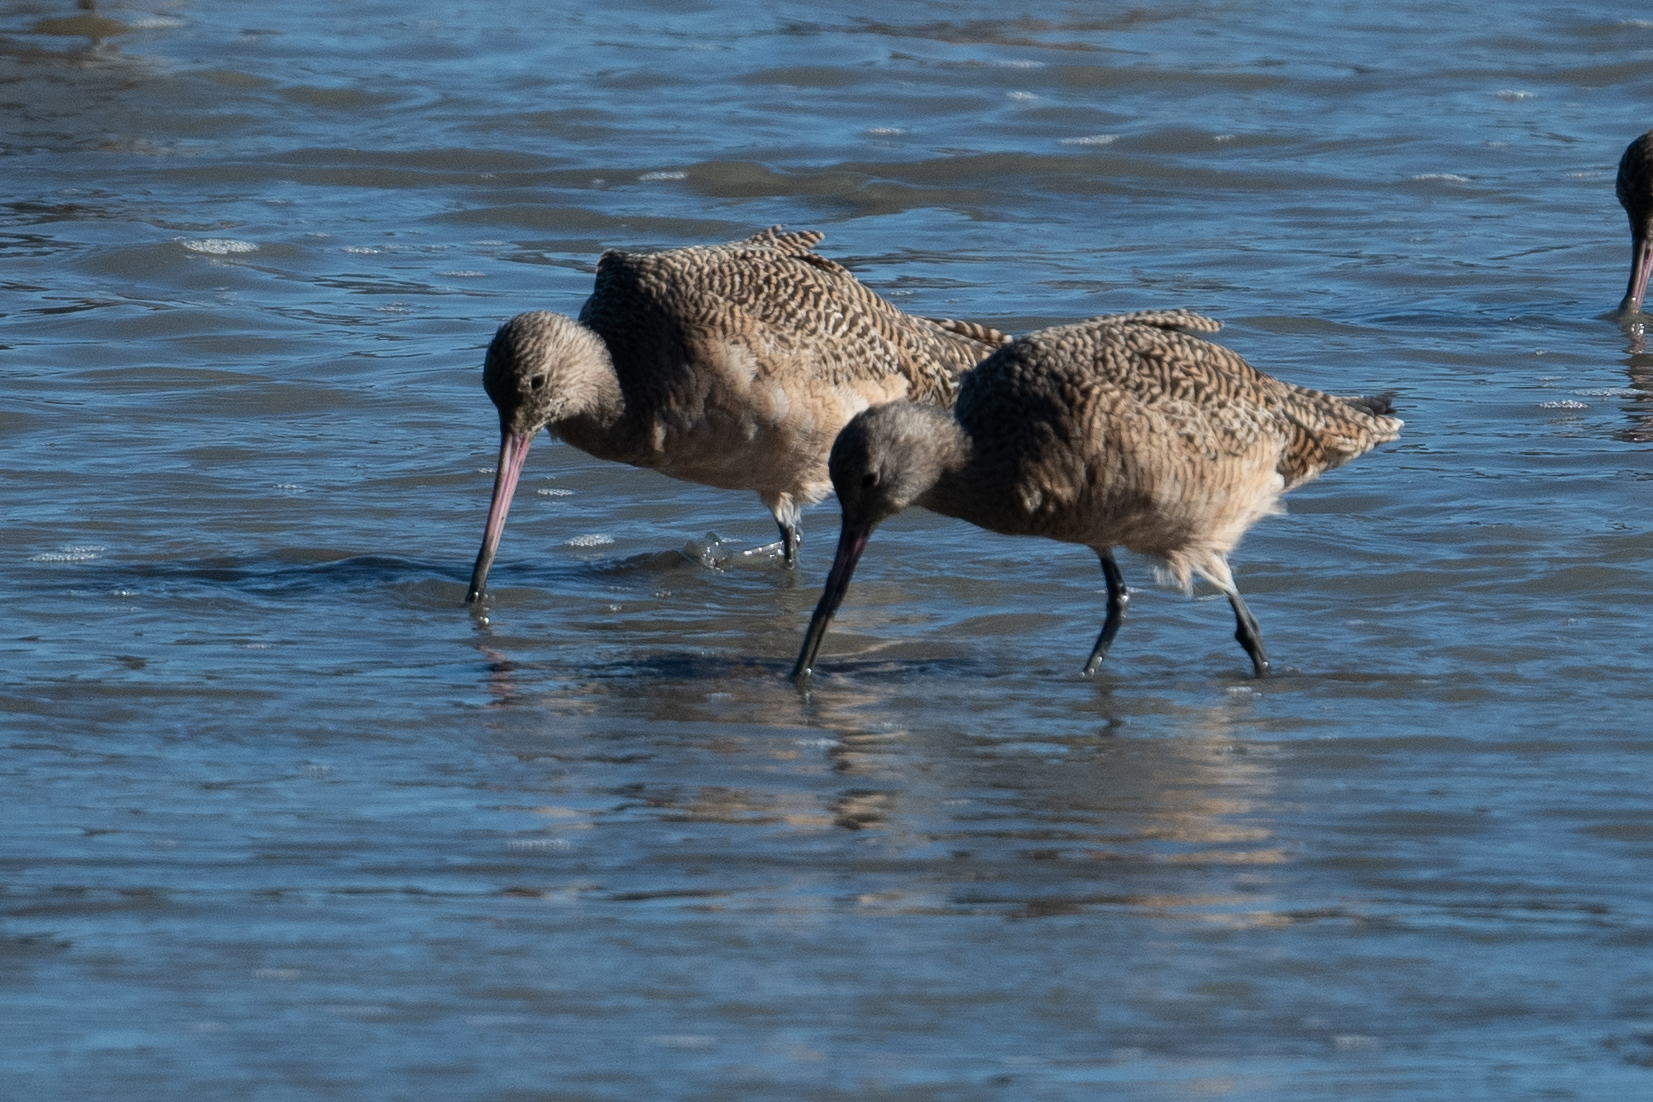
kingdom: Animalia
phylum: Chordata
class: Aves
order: Charadriiformes
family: Scolopacidae
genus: Limosa
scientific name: Limosa fedoa
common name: Marbled godwit
